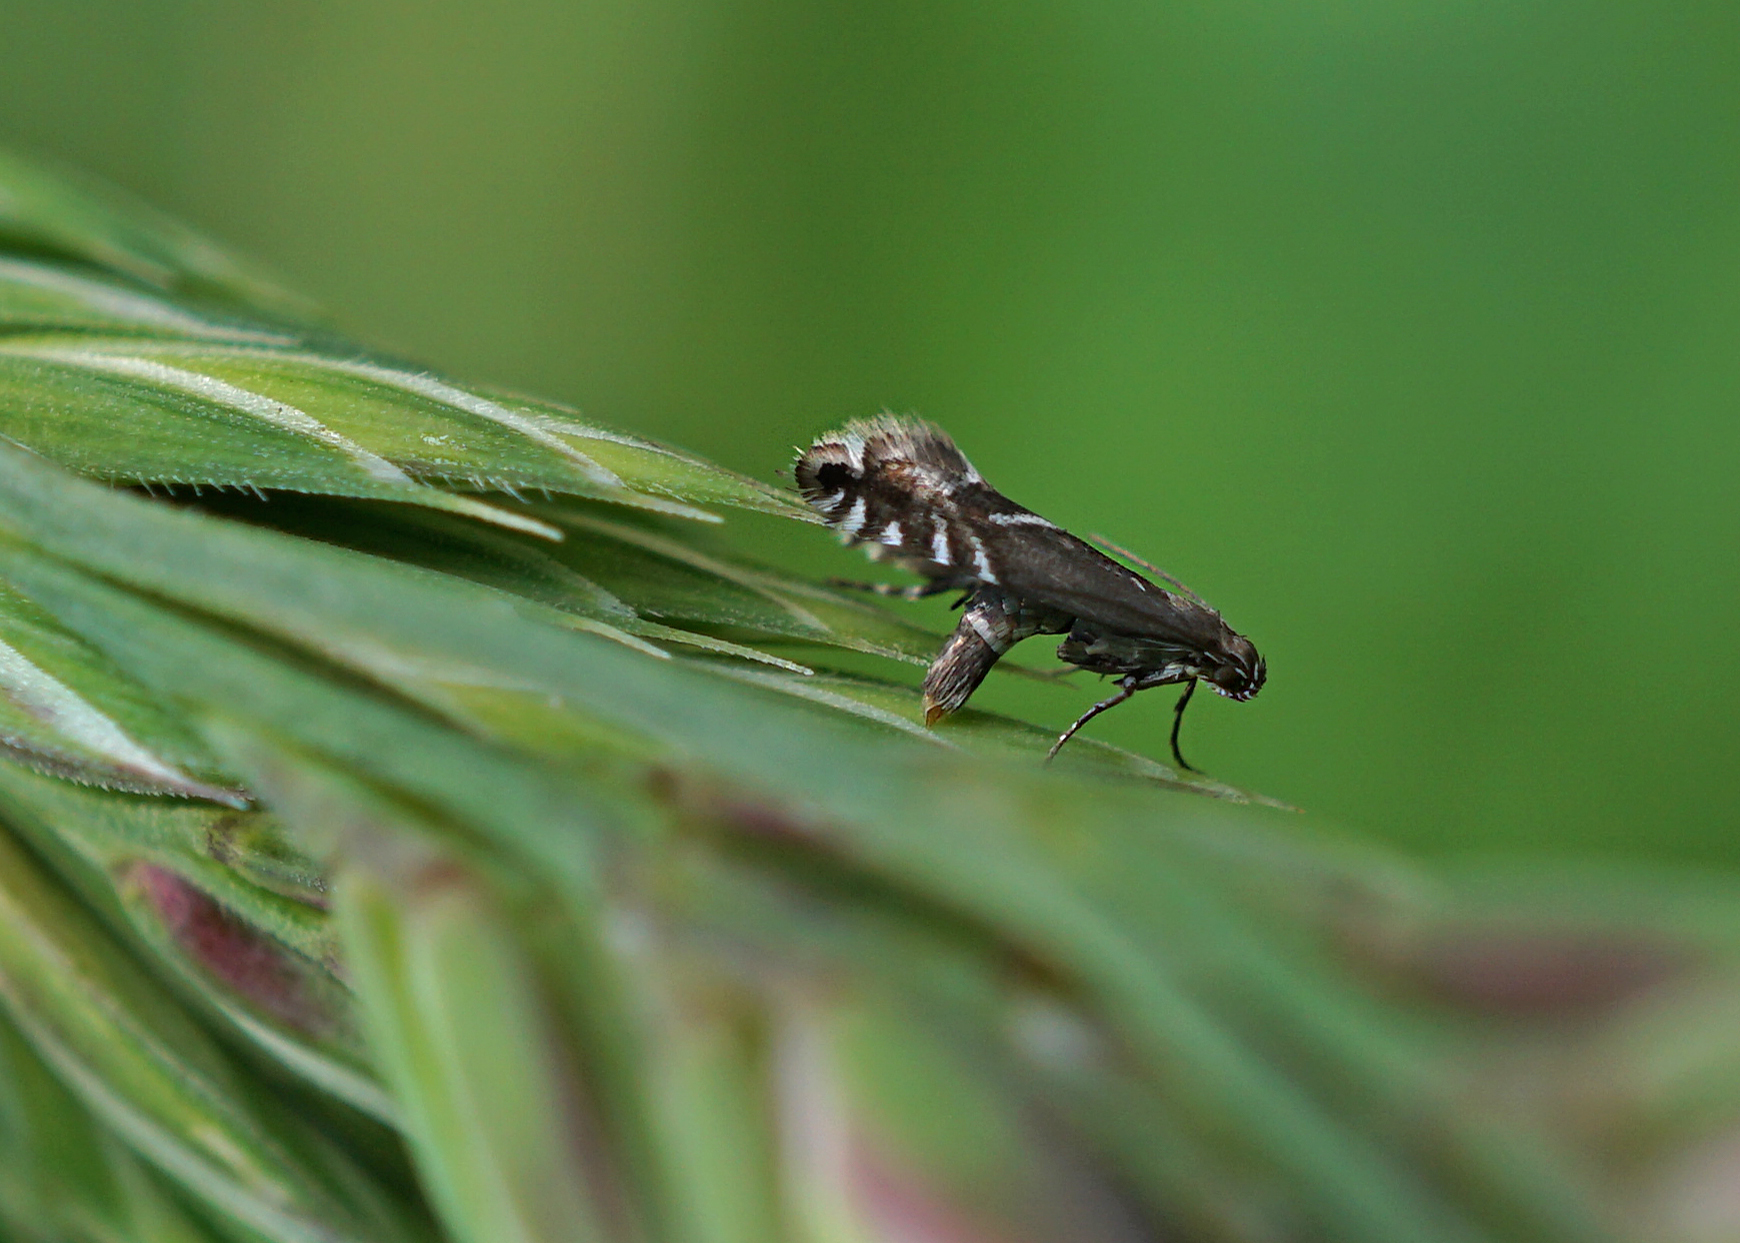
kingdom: Animalia
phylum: Arthropoda
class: Insecta
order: Lepidoptera
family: Glyphipterigidae
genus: Glyphipterix
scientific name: Glyphipterix simpliciella
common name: Cocksfoot moth
